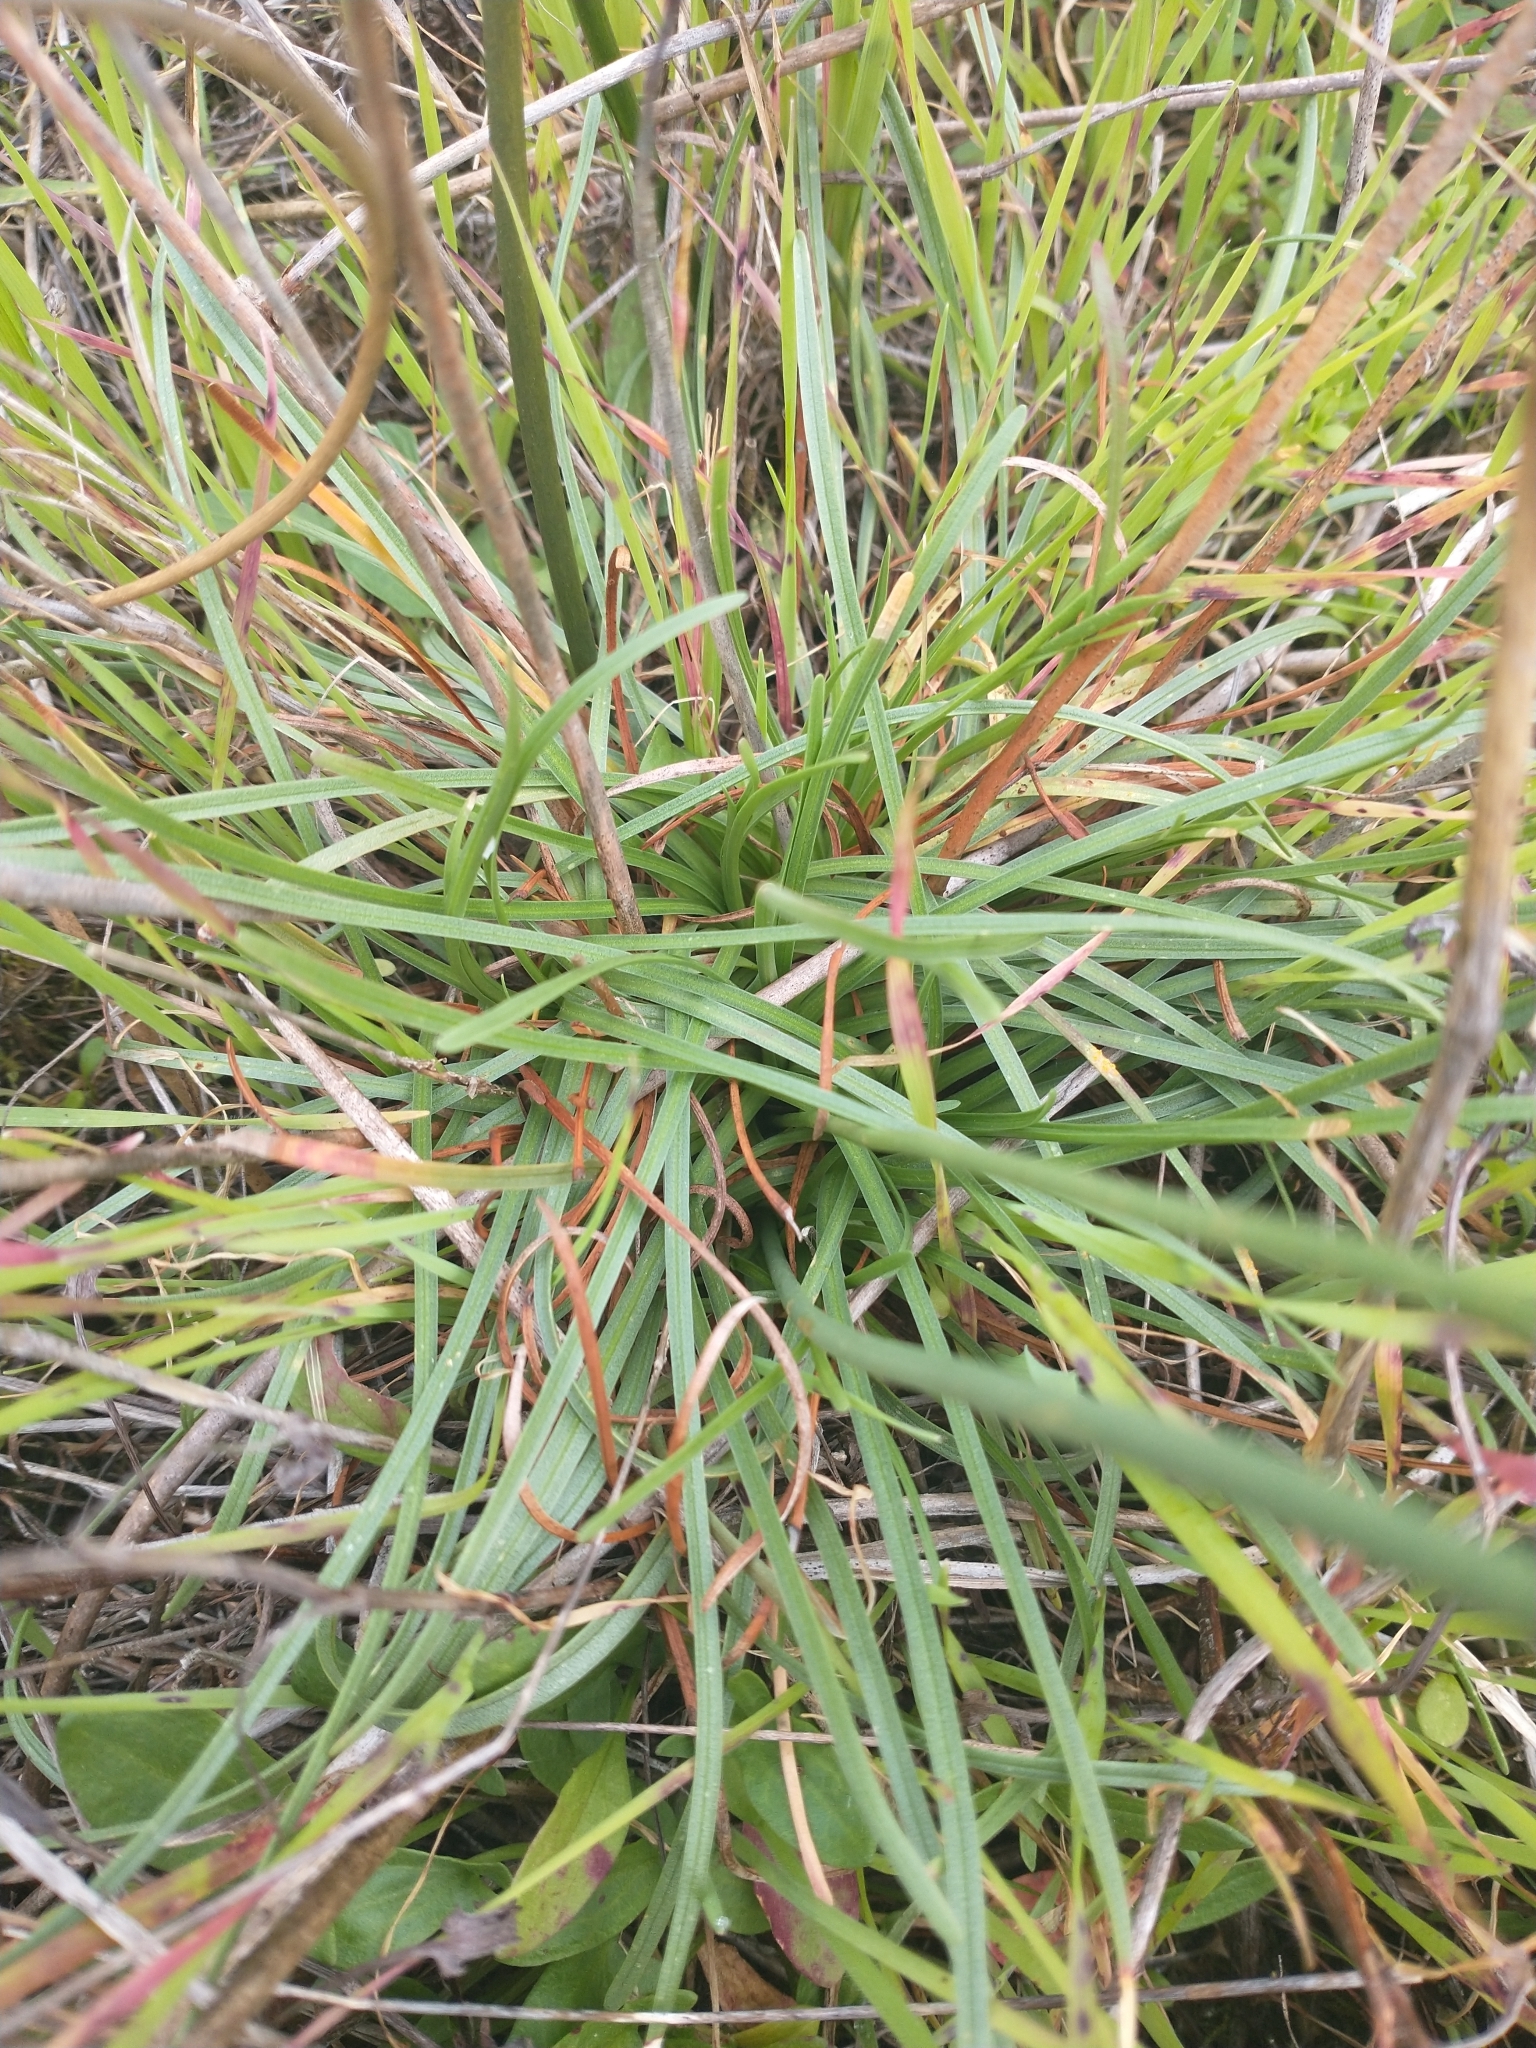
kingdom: Plantae
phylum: Tracheophyta
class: Magnoliopsida
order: Caryophyllales
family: Plumbaginaceae
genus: Armeria
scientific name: Armeria maritima
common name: Thrift
